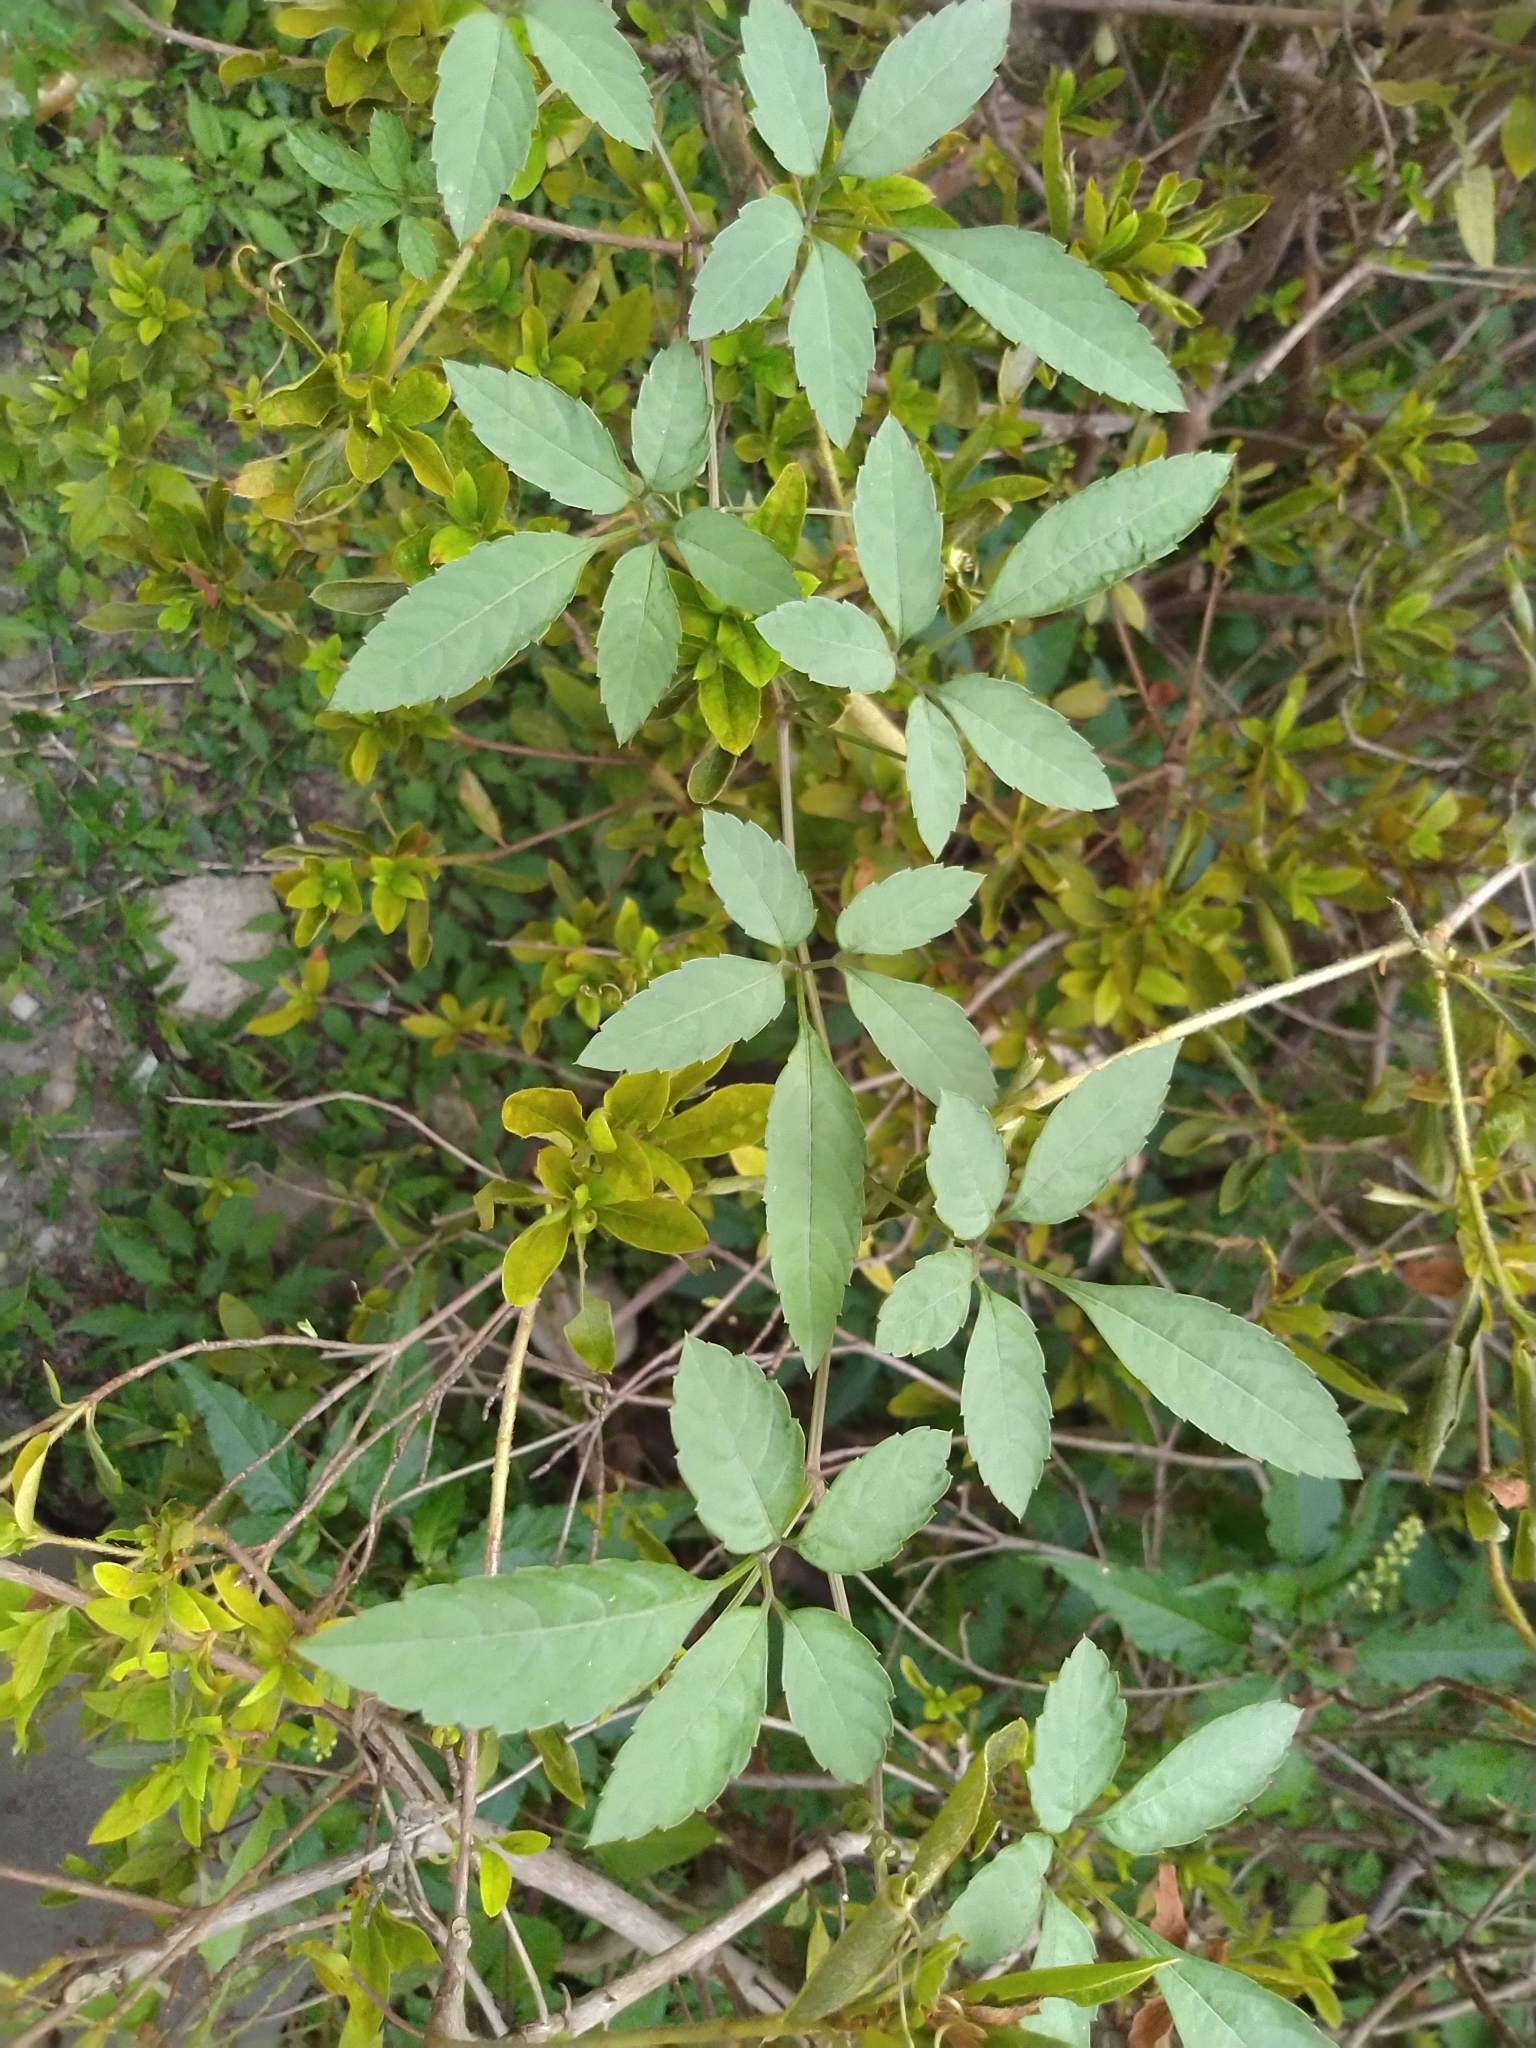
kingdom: Plantae
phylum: Tracheophyta
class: Magnoliopsida
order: Vitales
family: Vitaceae
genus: Causonis
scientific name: Causonis japonica
